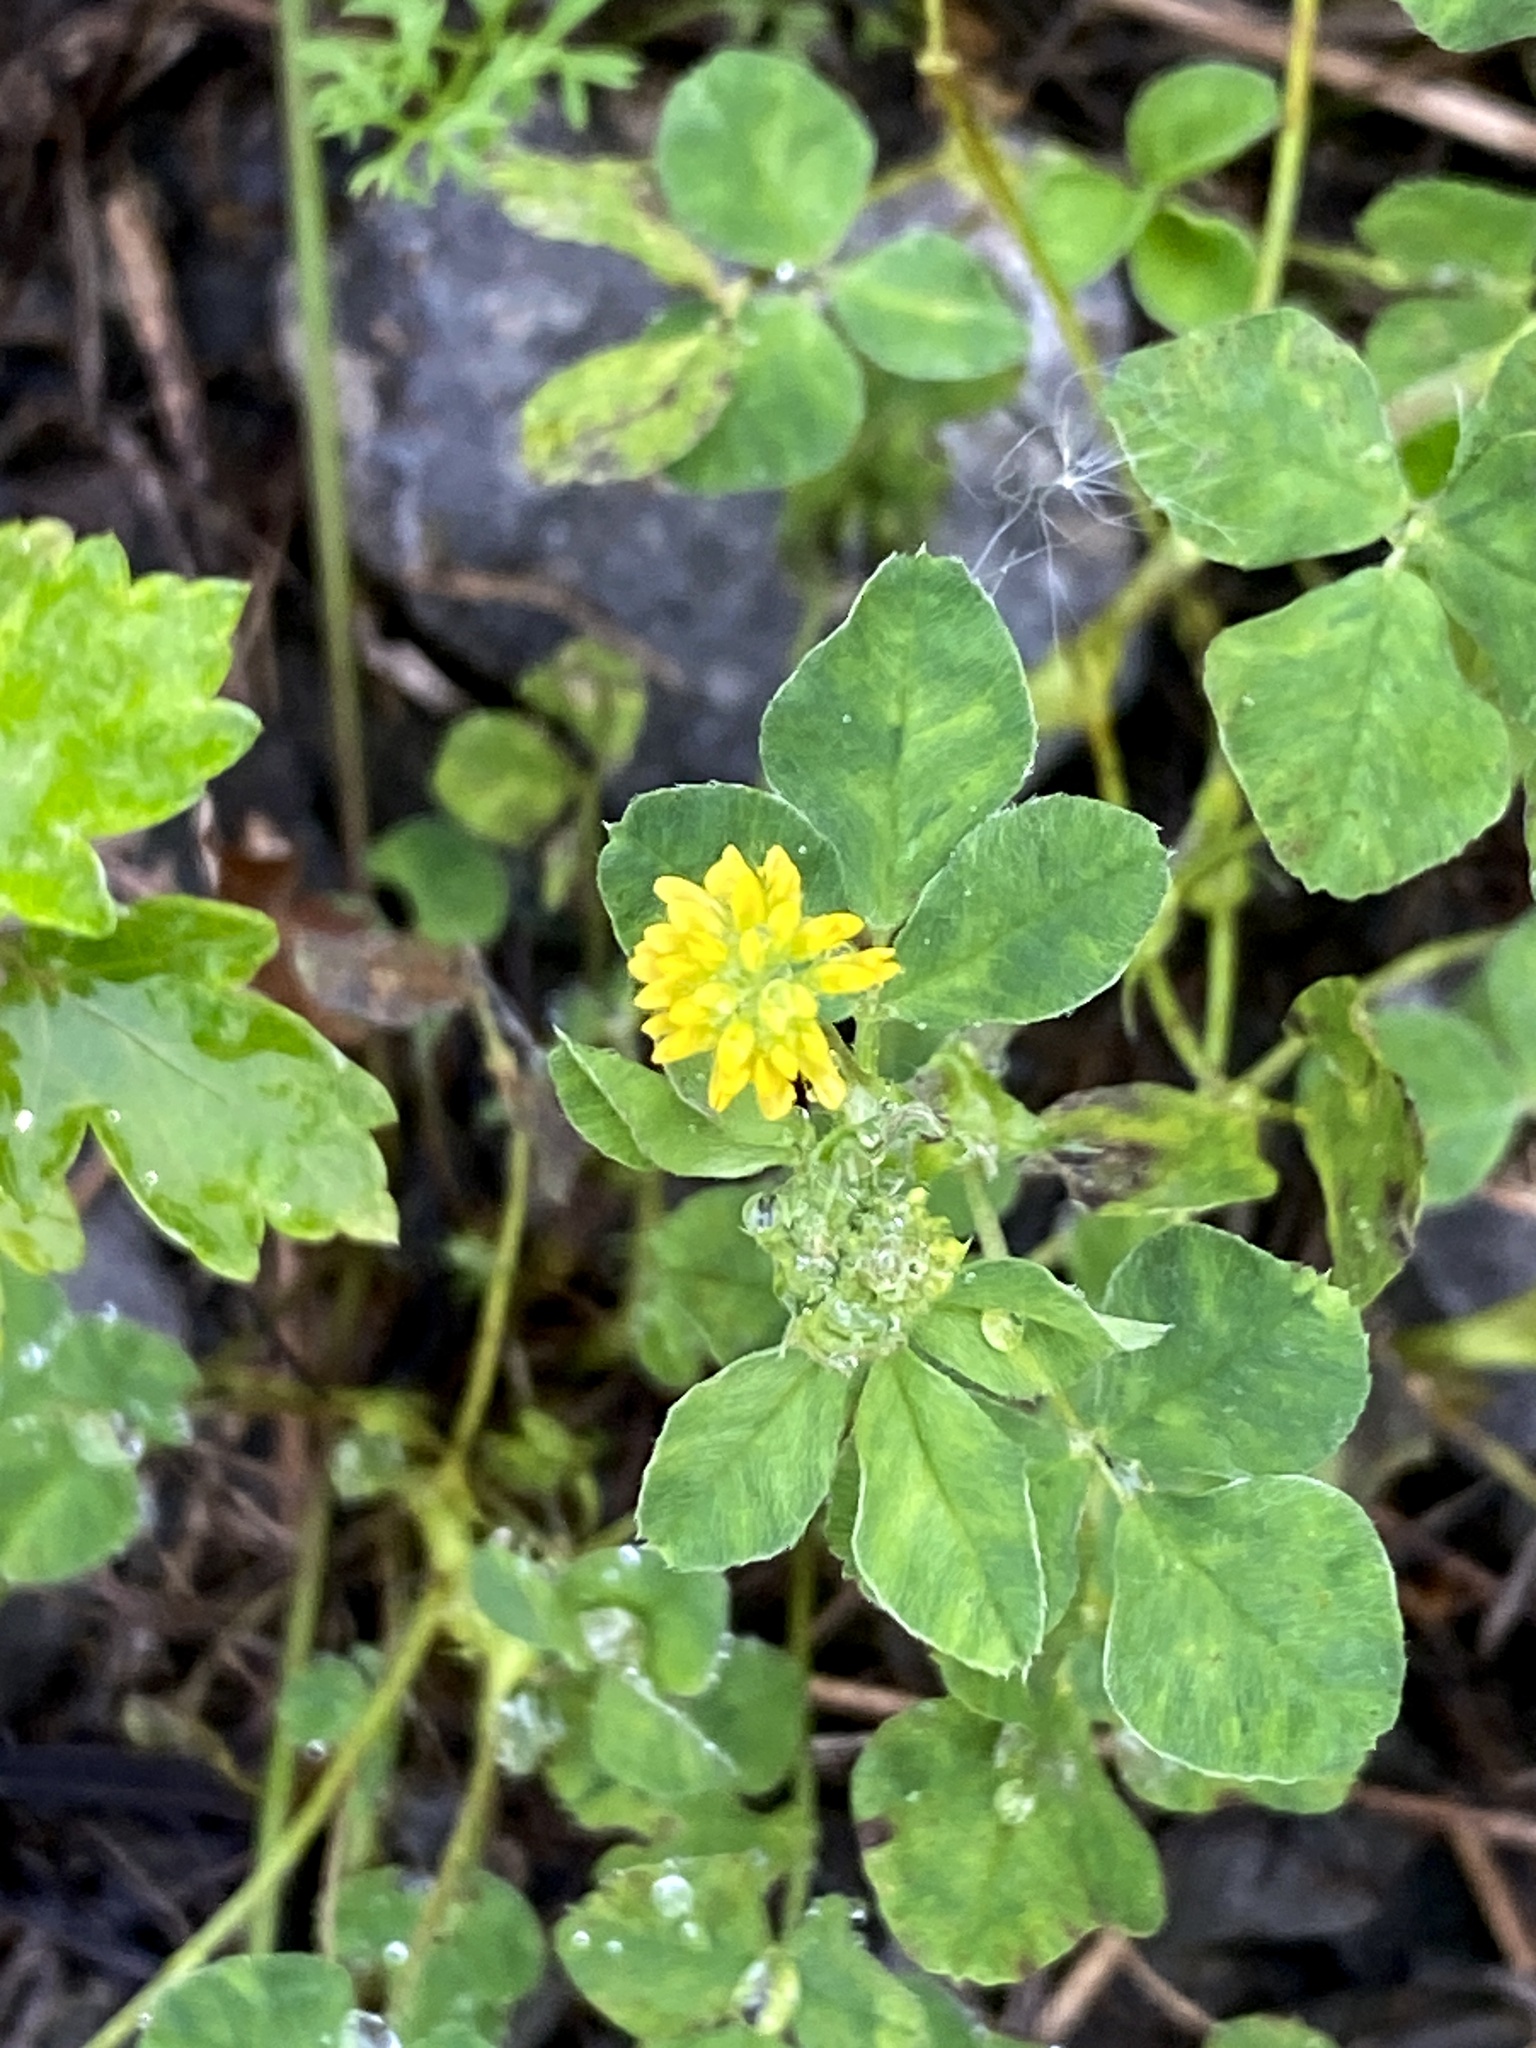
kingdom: Plantae
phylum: Tracheophyta
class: Magnoliopsida
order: Fabales
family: Fabaceae
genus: Medicago
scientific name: Medicago lupulina
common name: Black medick
